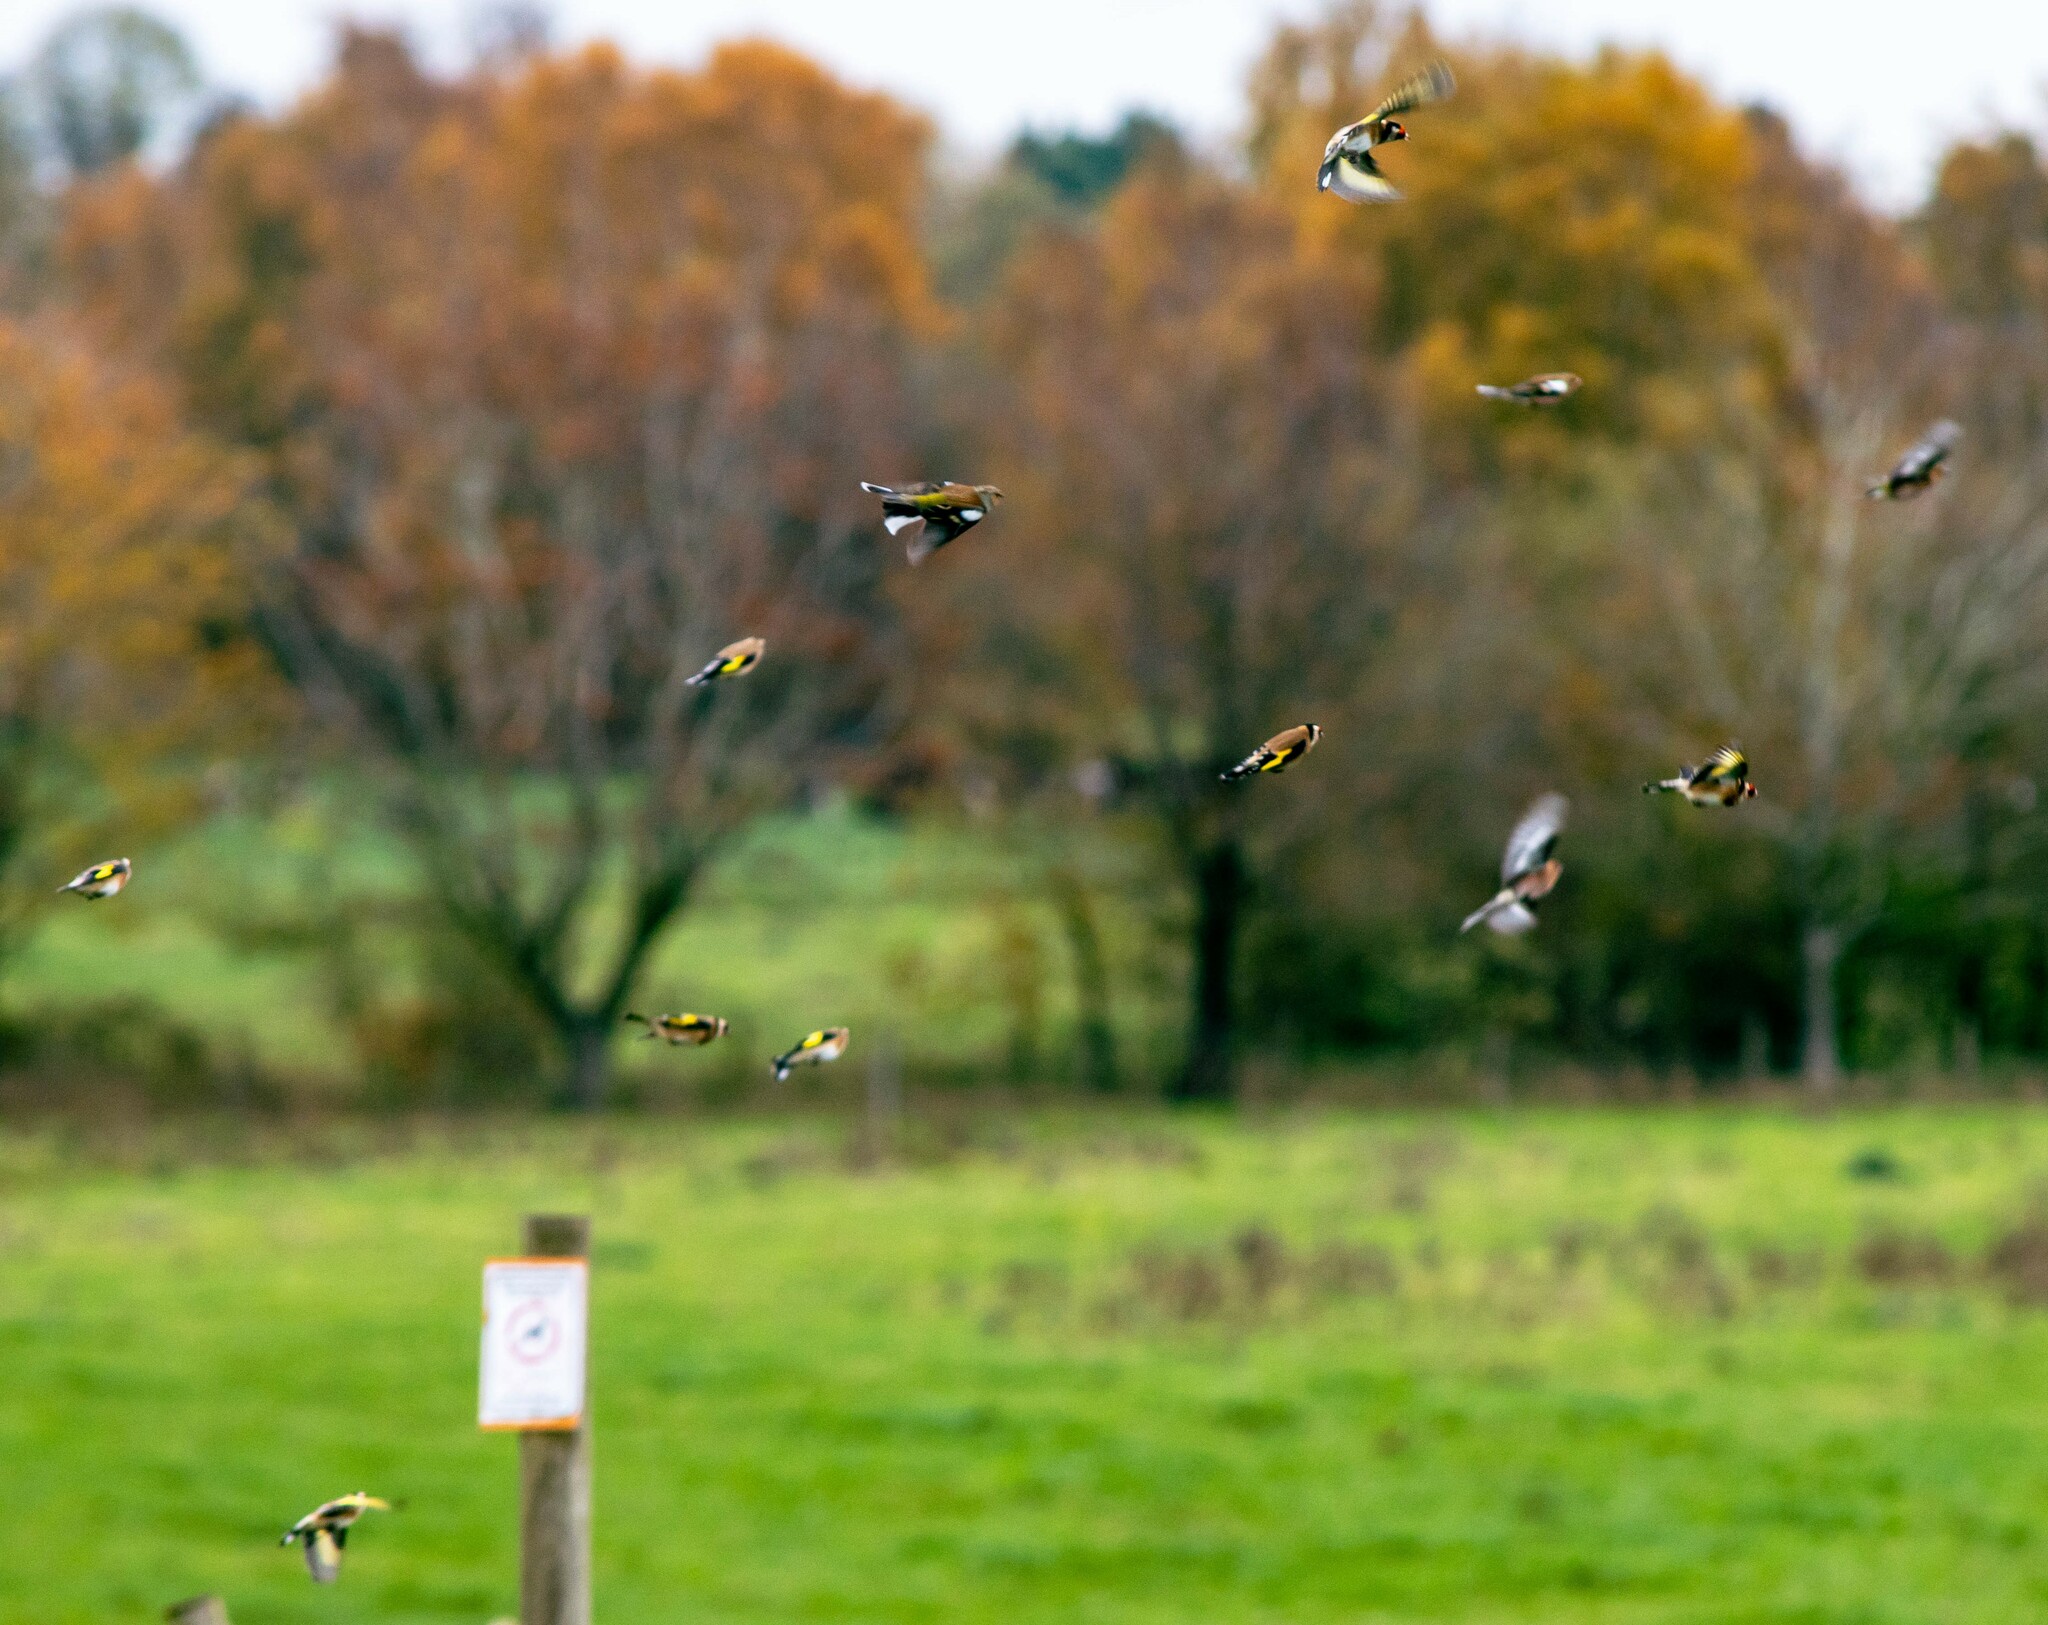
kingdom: Animalia
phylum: Chordata
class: Aves
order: Passeriformes
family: Fringillidae
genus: Carduelis
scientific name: Carduelis carduelis
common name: European goldfinch
